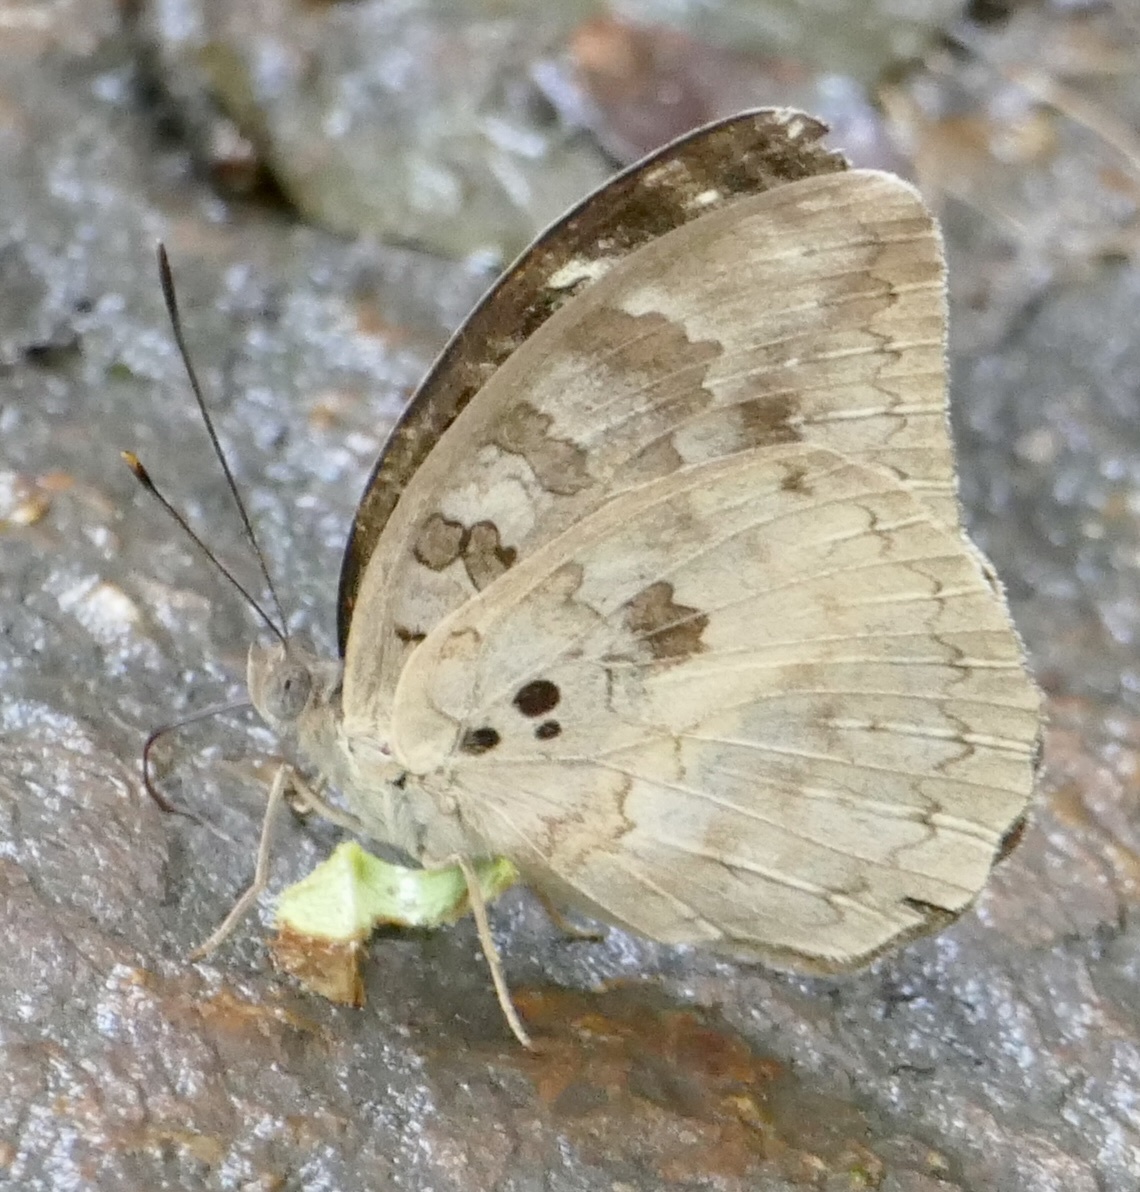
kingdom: Animalia
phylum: Arthropoda
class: Insecta
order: Lepidoptera
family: Nymphalidae
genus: Bebearia
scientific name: Bebearia abesa
